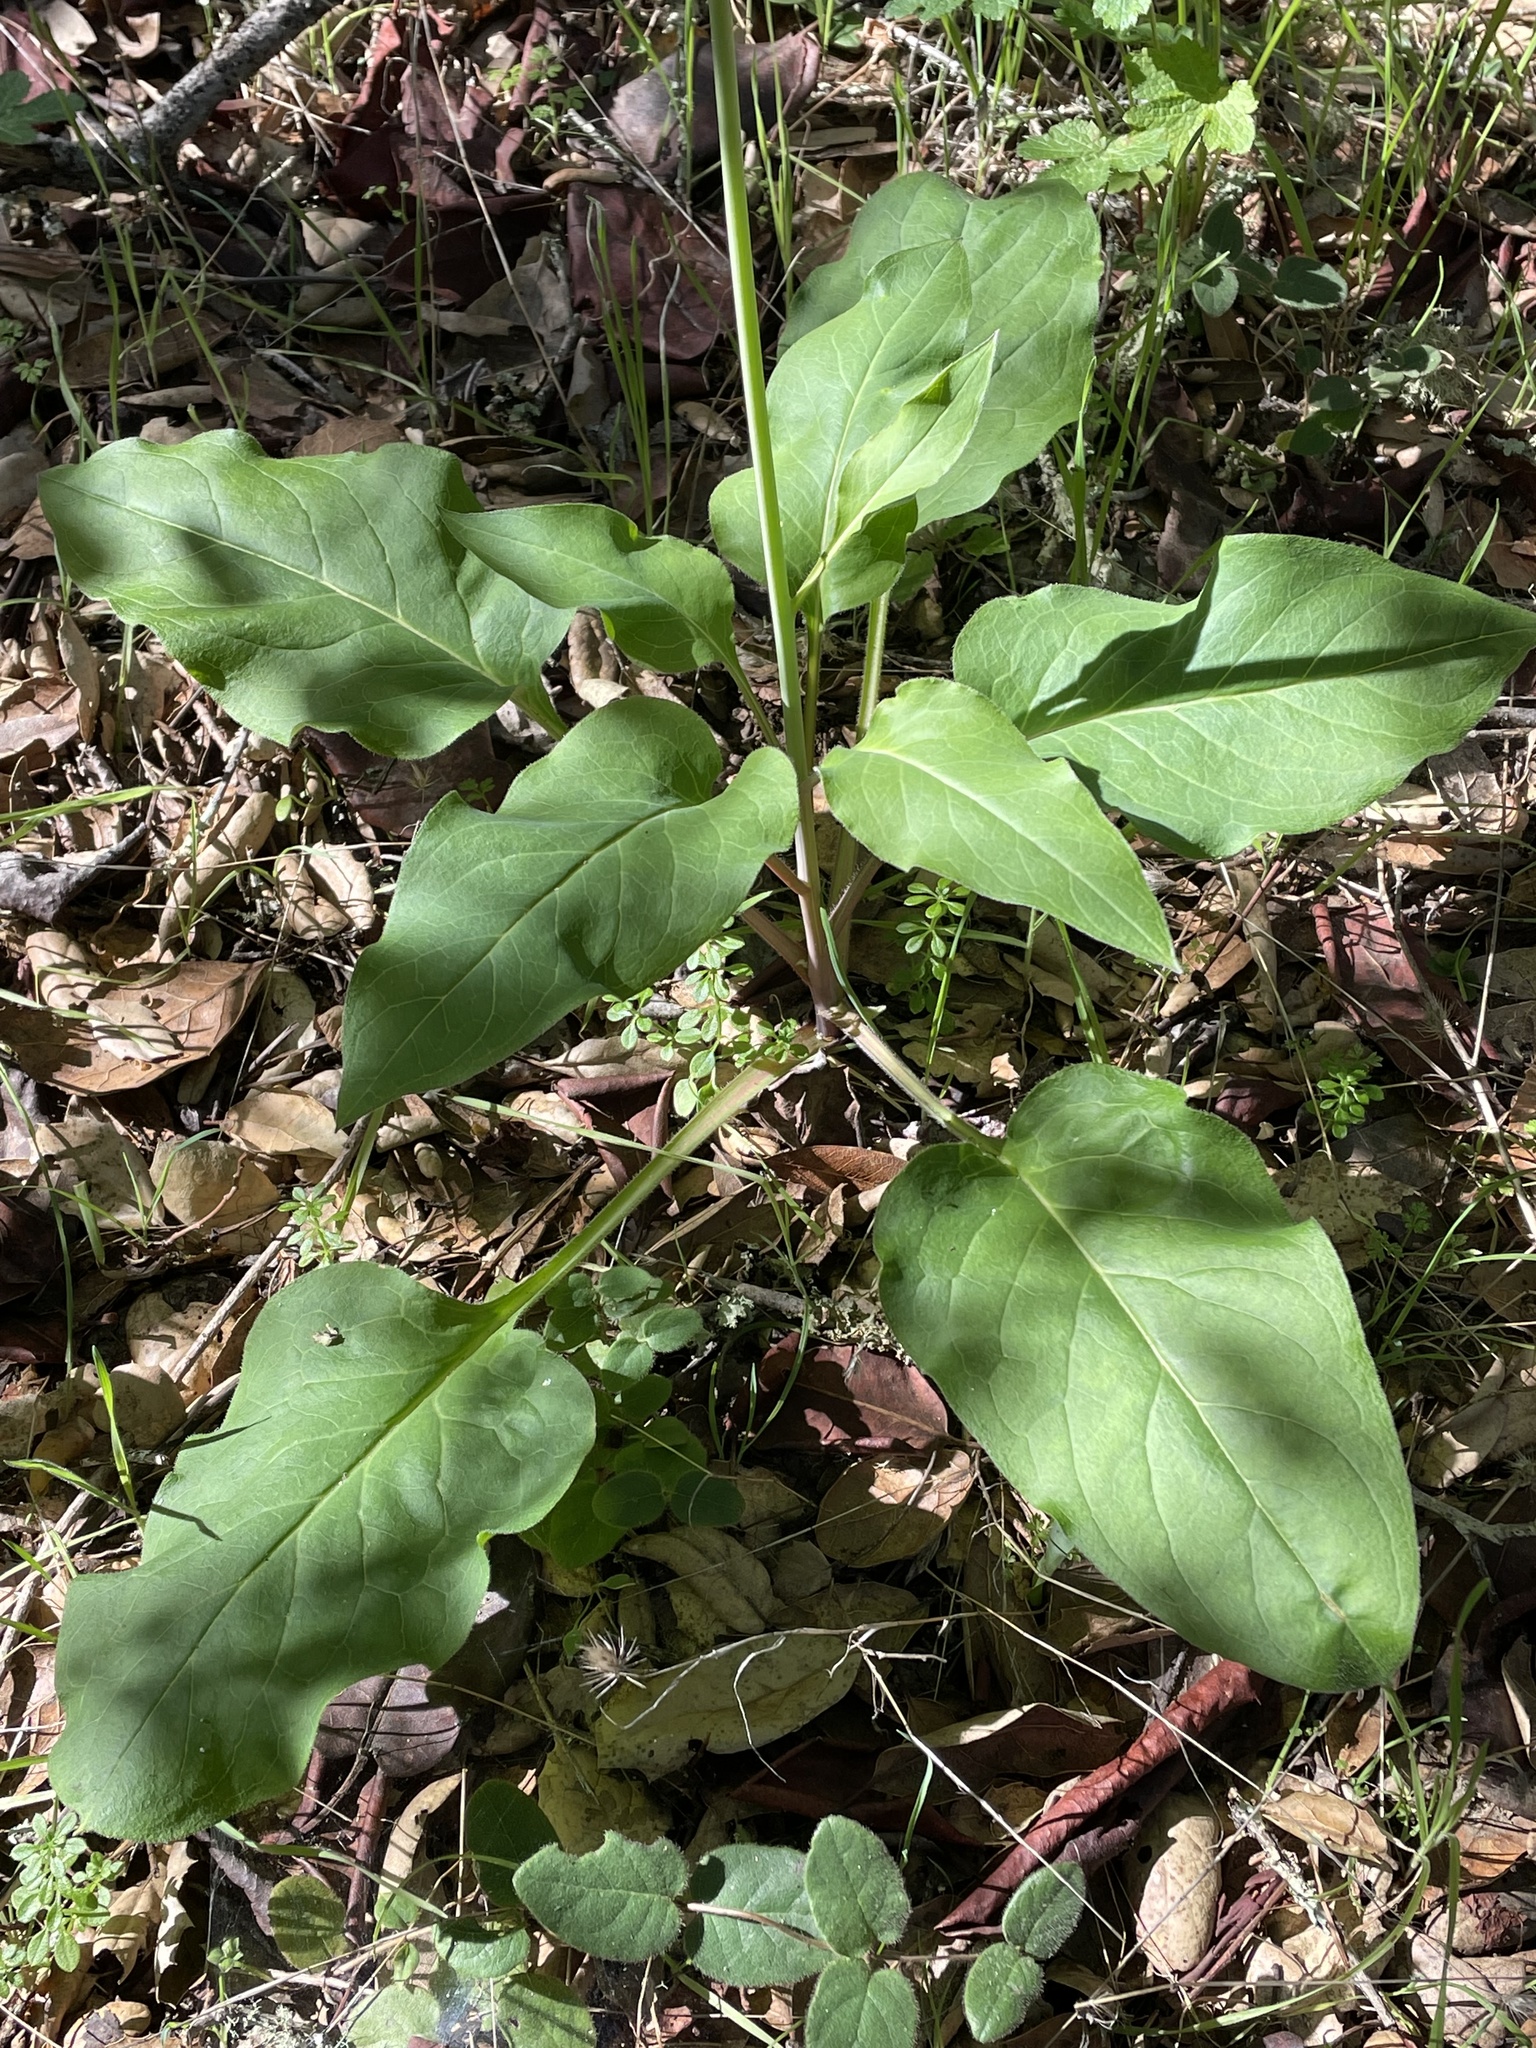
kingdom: Plantae
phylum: Tracheophyta
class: Magnoliopsida
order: Boraginales
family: Boraginaceae
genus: Adelinia
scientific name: Adelinia grande
